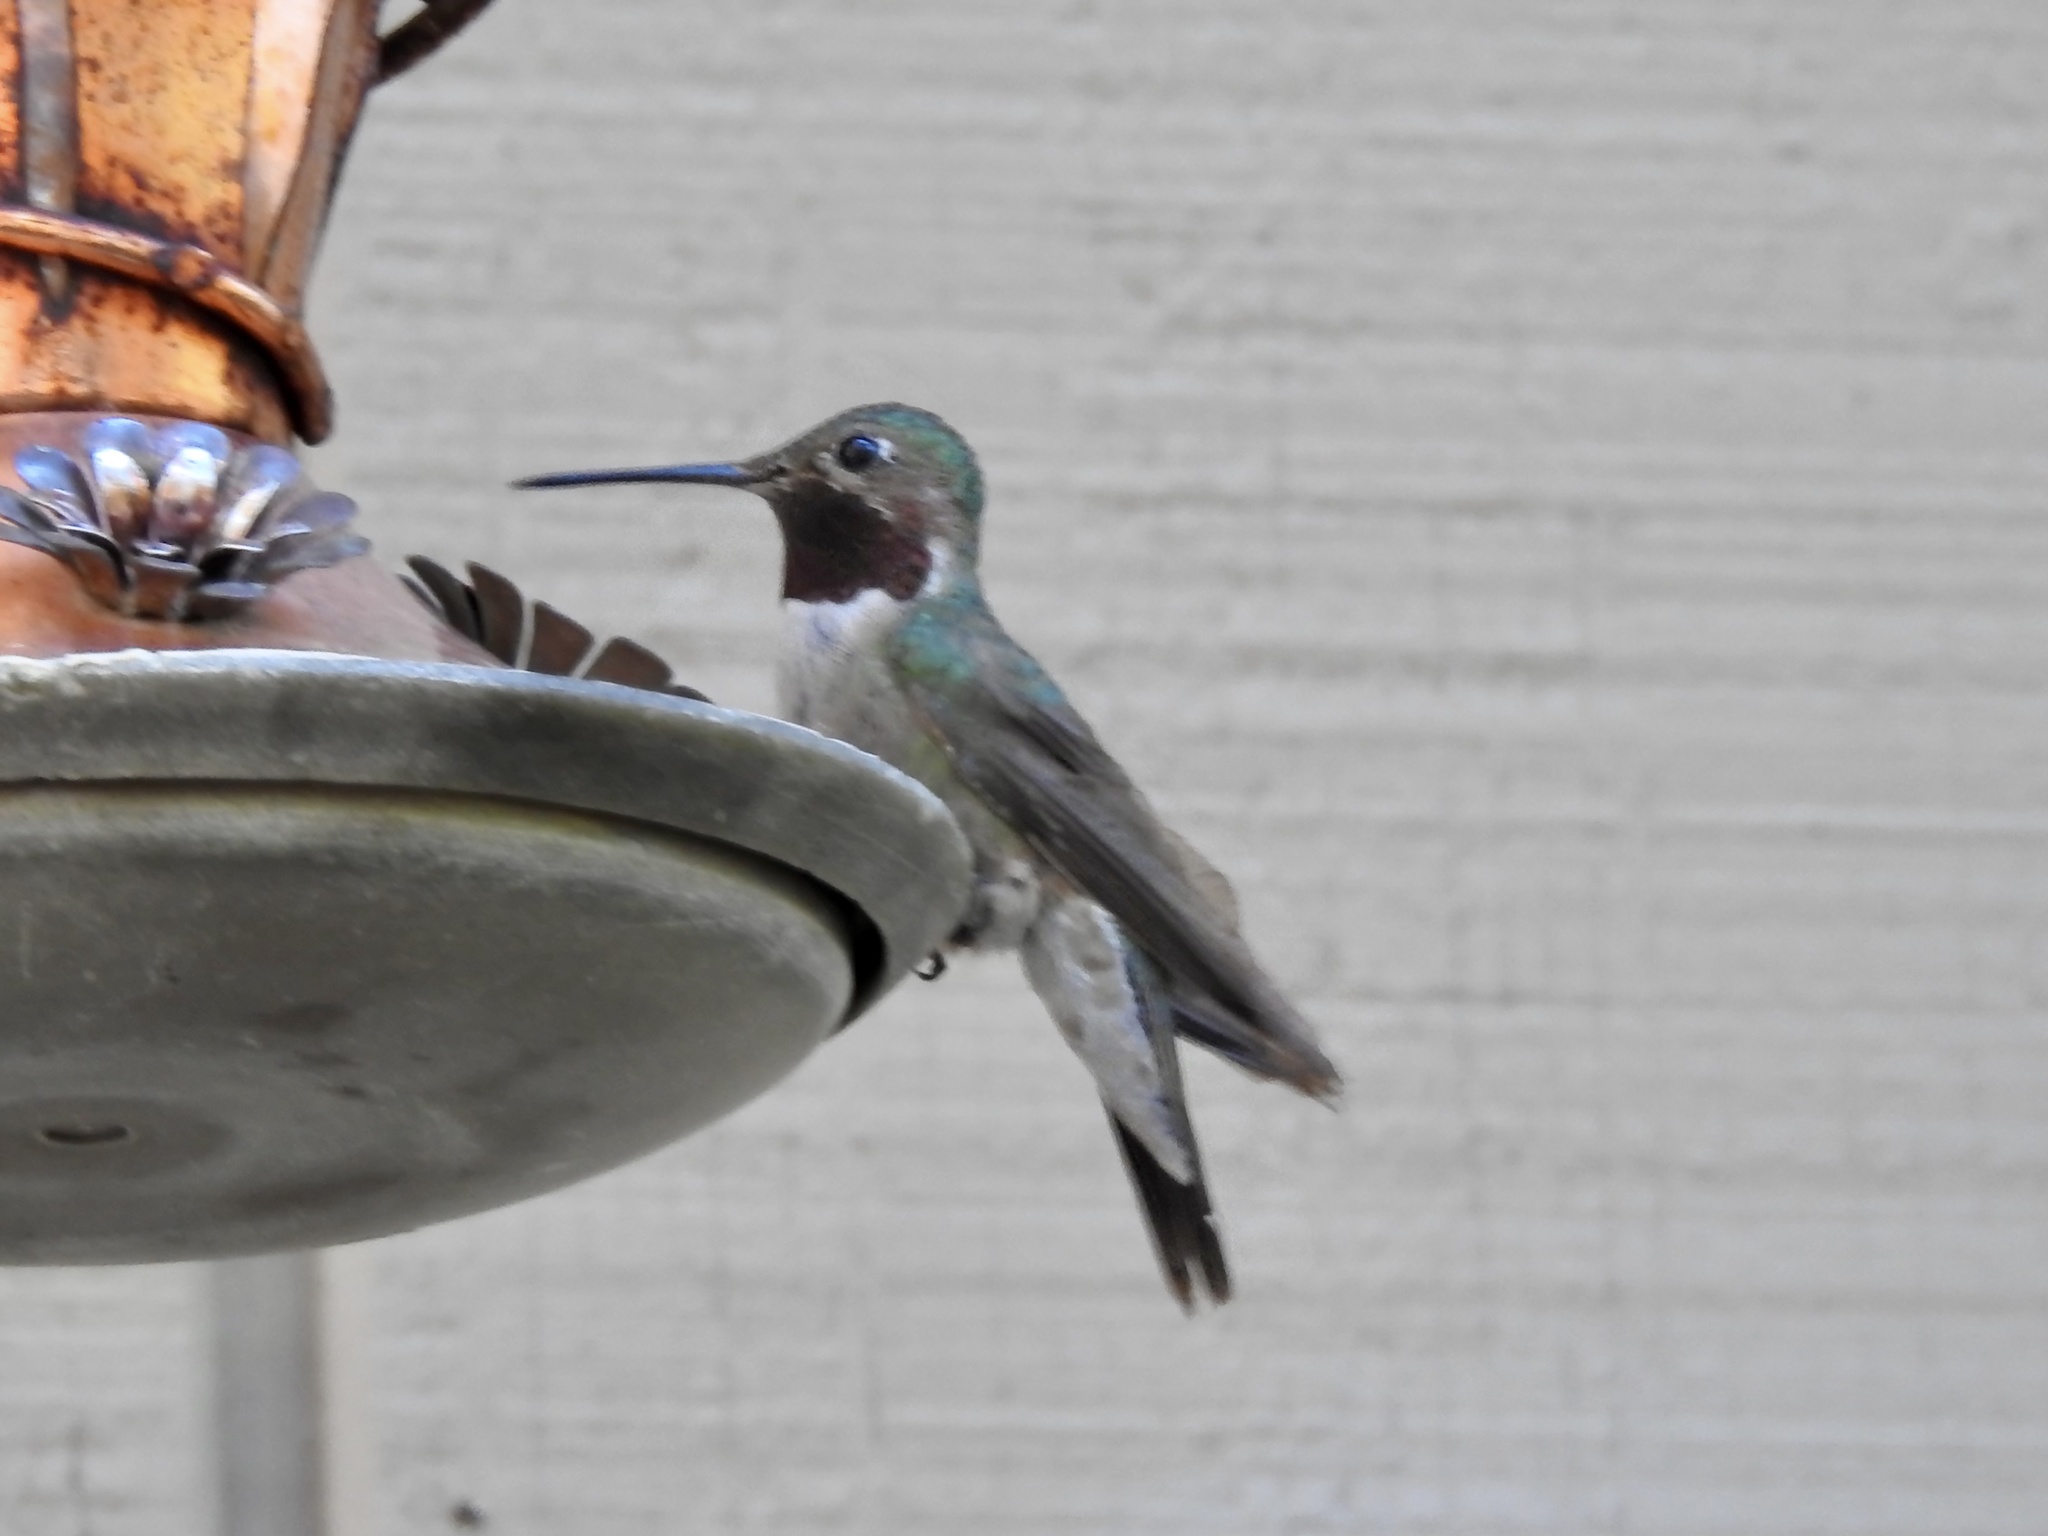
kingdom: Animalia
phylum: Chordata
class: Aves
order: Apodiformes
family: Trochilidae
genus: Selasphorus
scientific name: Selasphorus platycercus
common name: Broad-tailed hummingbird
